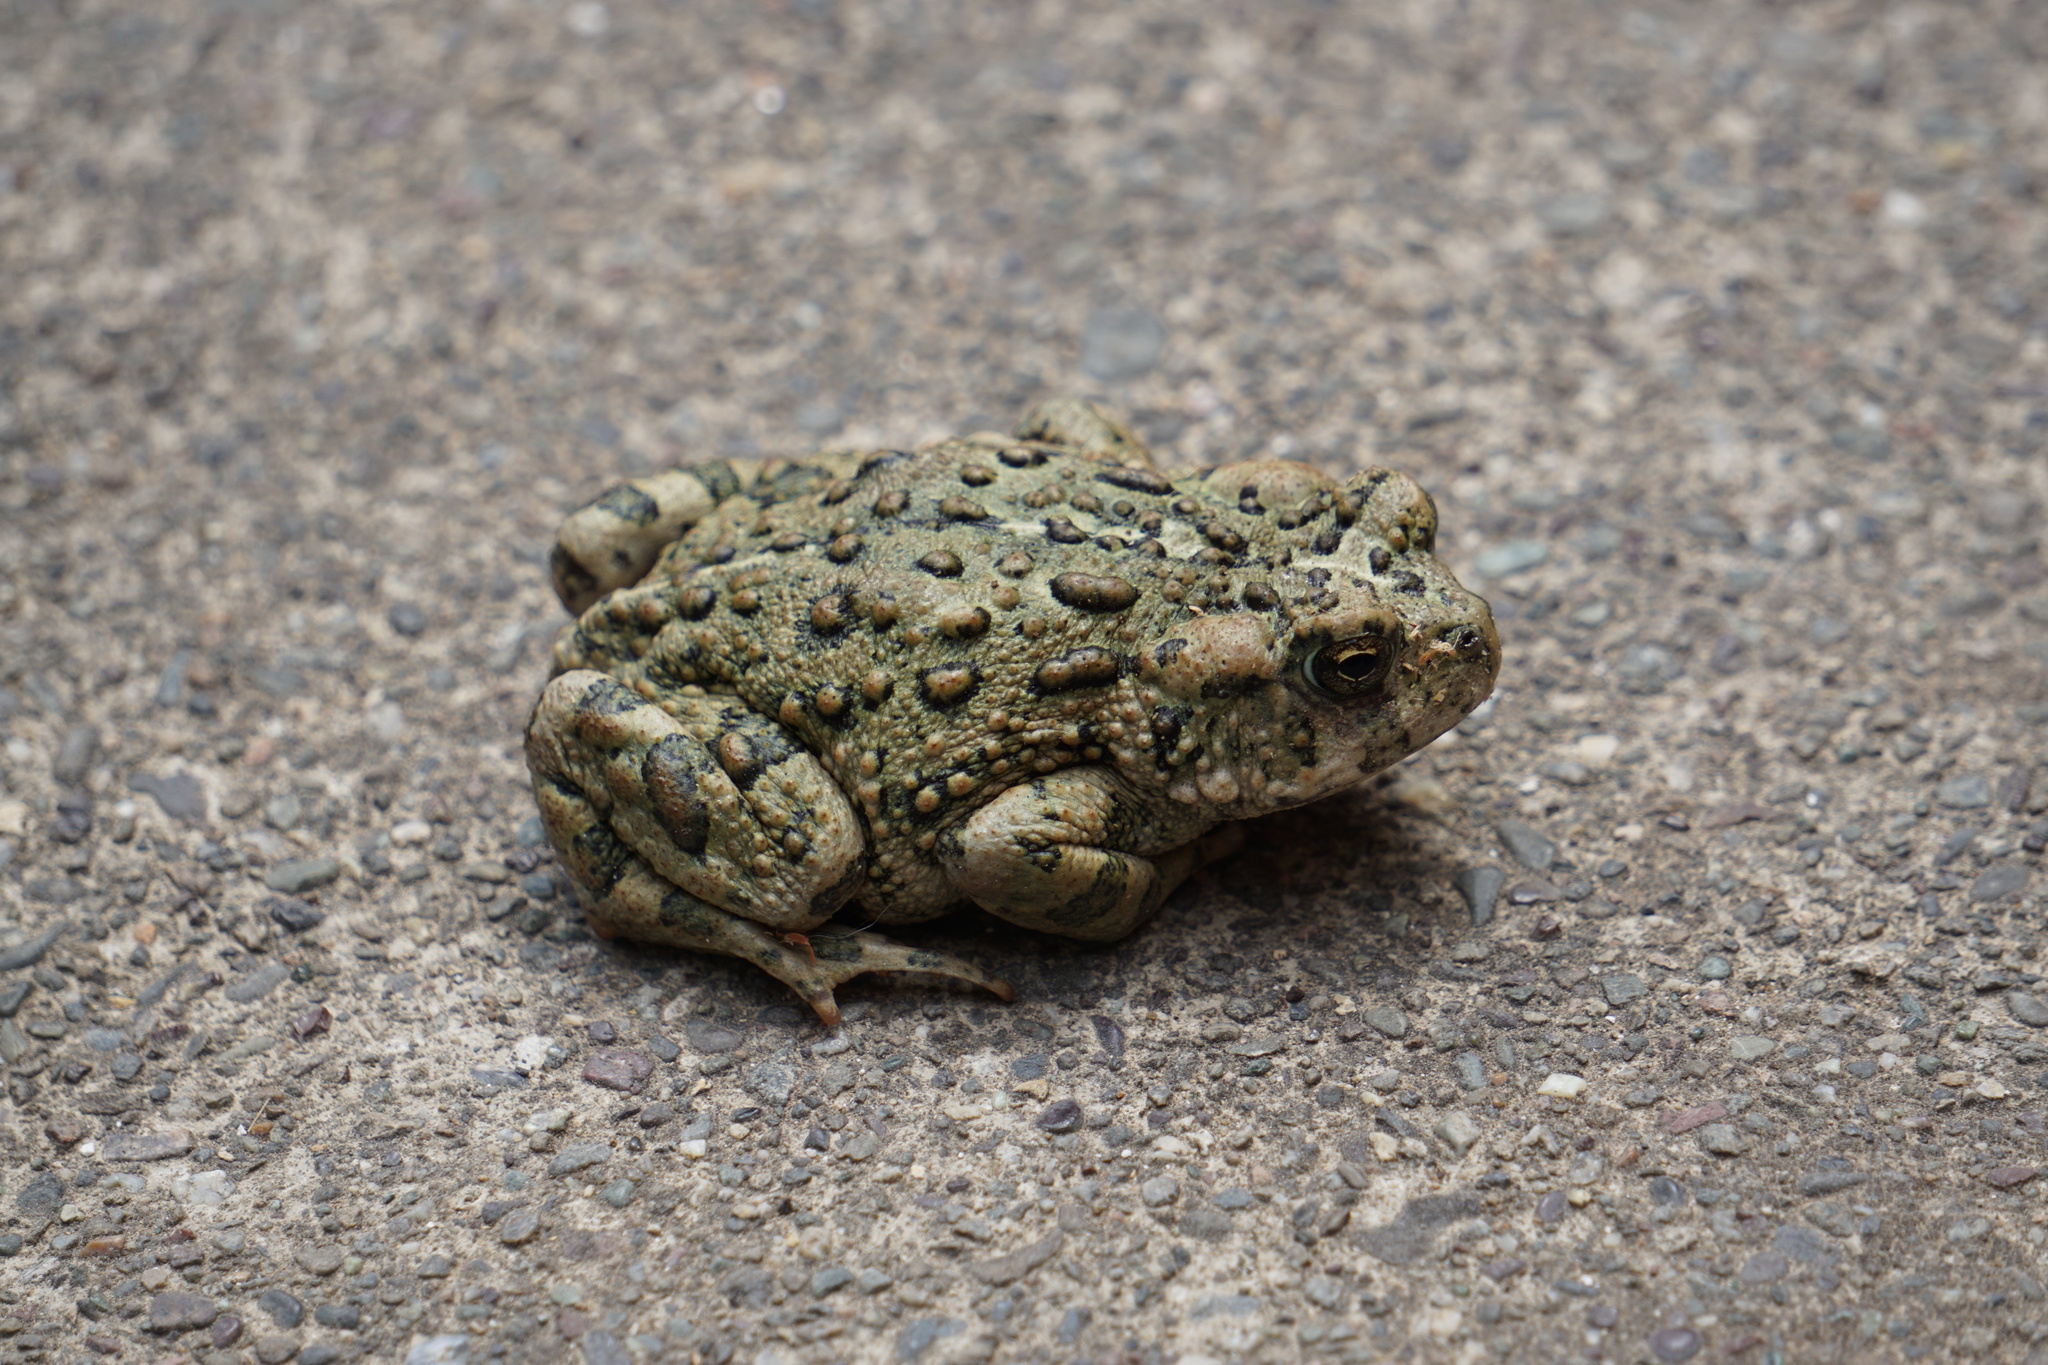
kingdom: Animalia
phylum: Chordata
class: Amphibia
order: Anura
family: Bufonidae
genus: Anaxyrus
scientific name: Anaxyrus boreas
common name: Western toad
